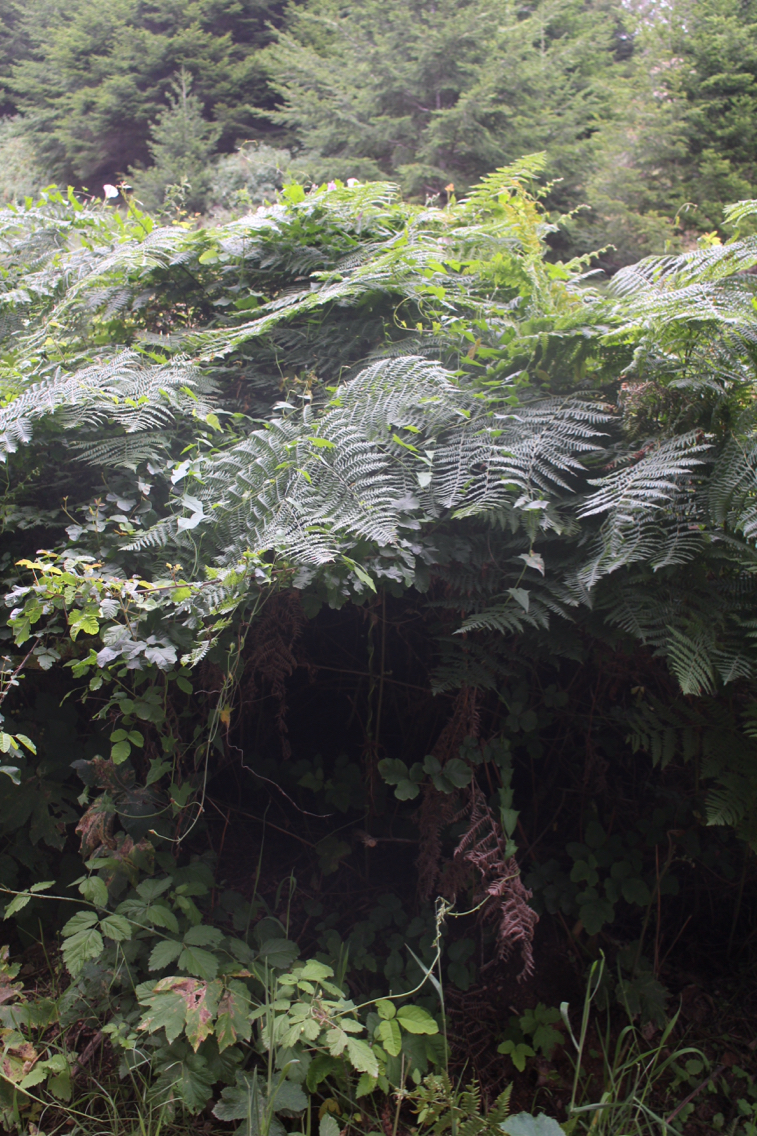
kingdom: Plantae
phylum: Tracheophyta
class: Polypodiopsida
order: Polypodiales
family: Dennstaedtiaceae
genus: Pteridium
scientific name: Pteridium aquilinum
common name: Bracken
